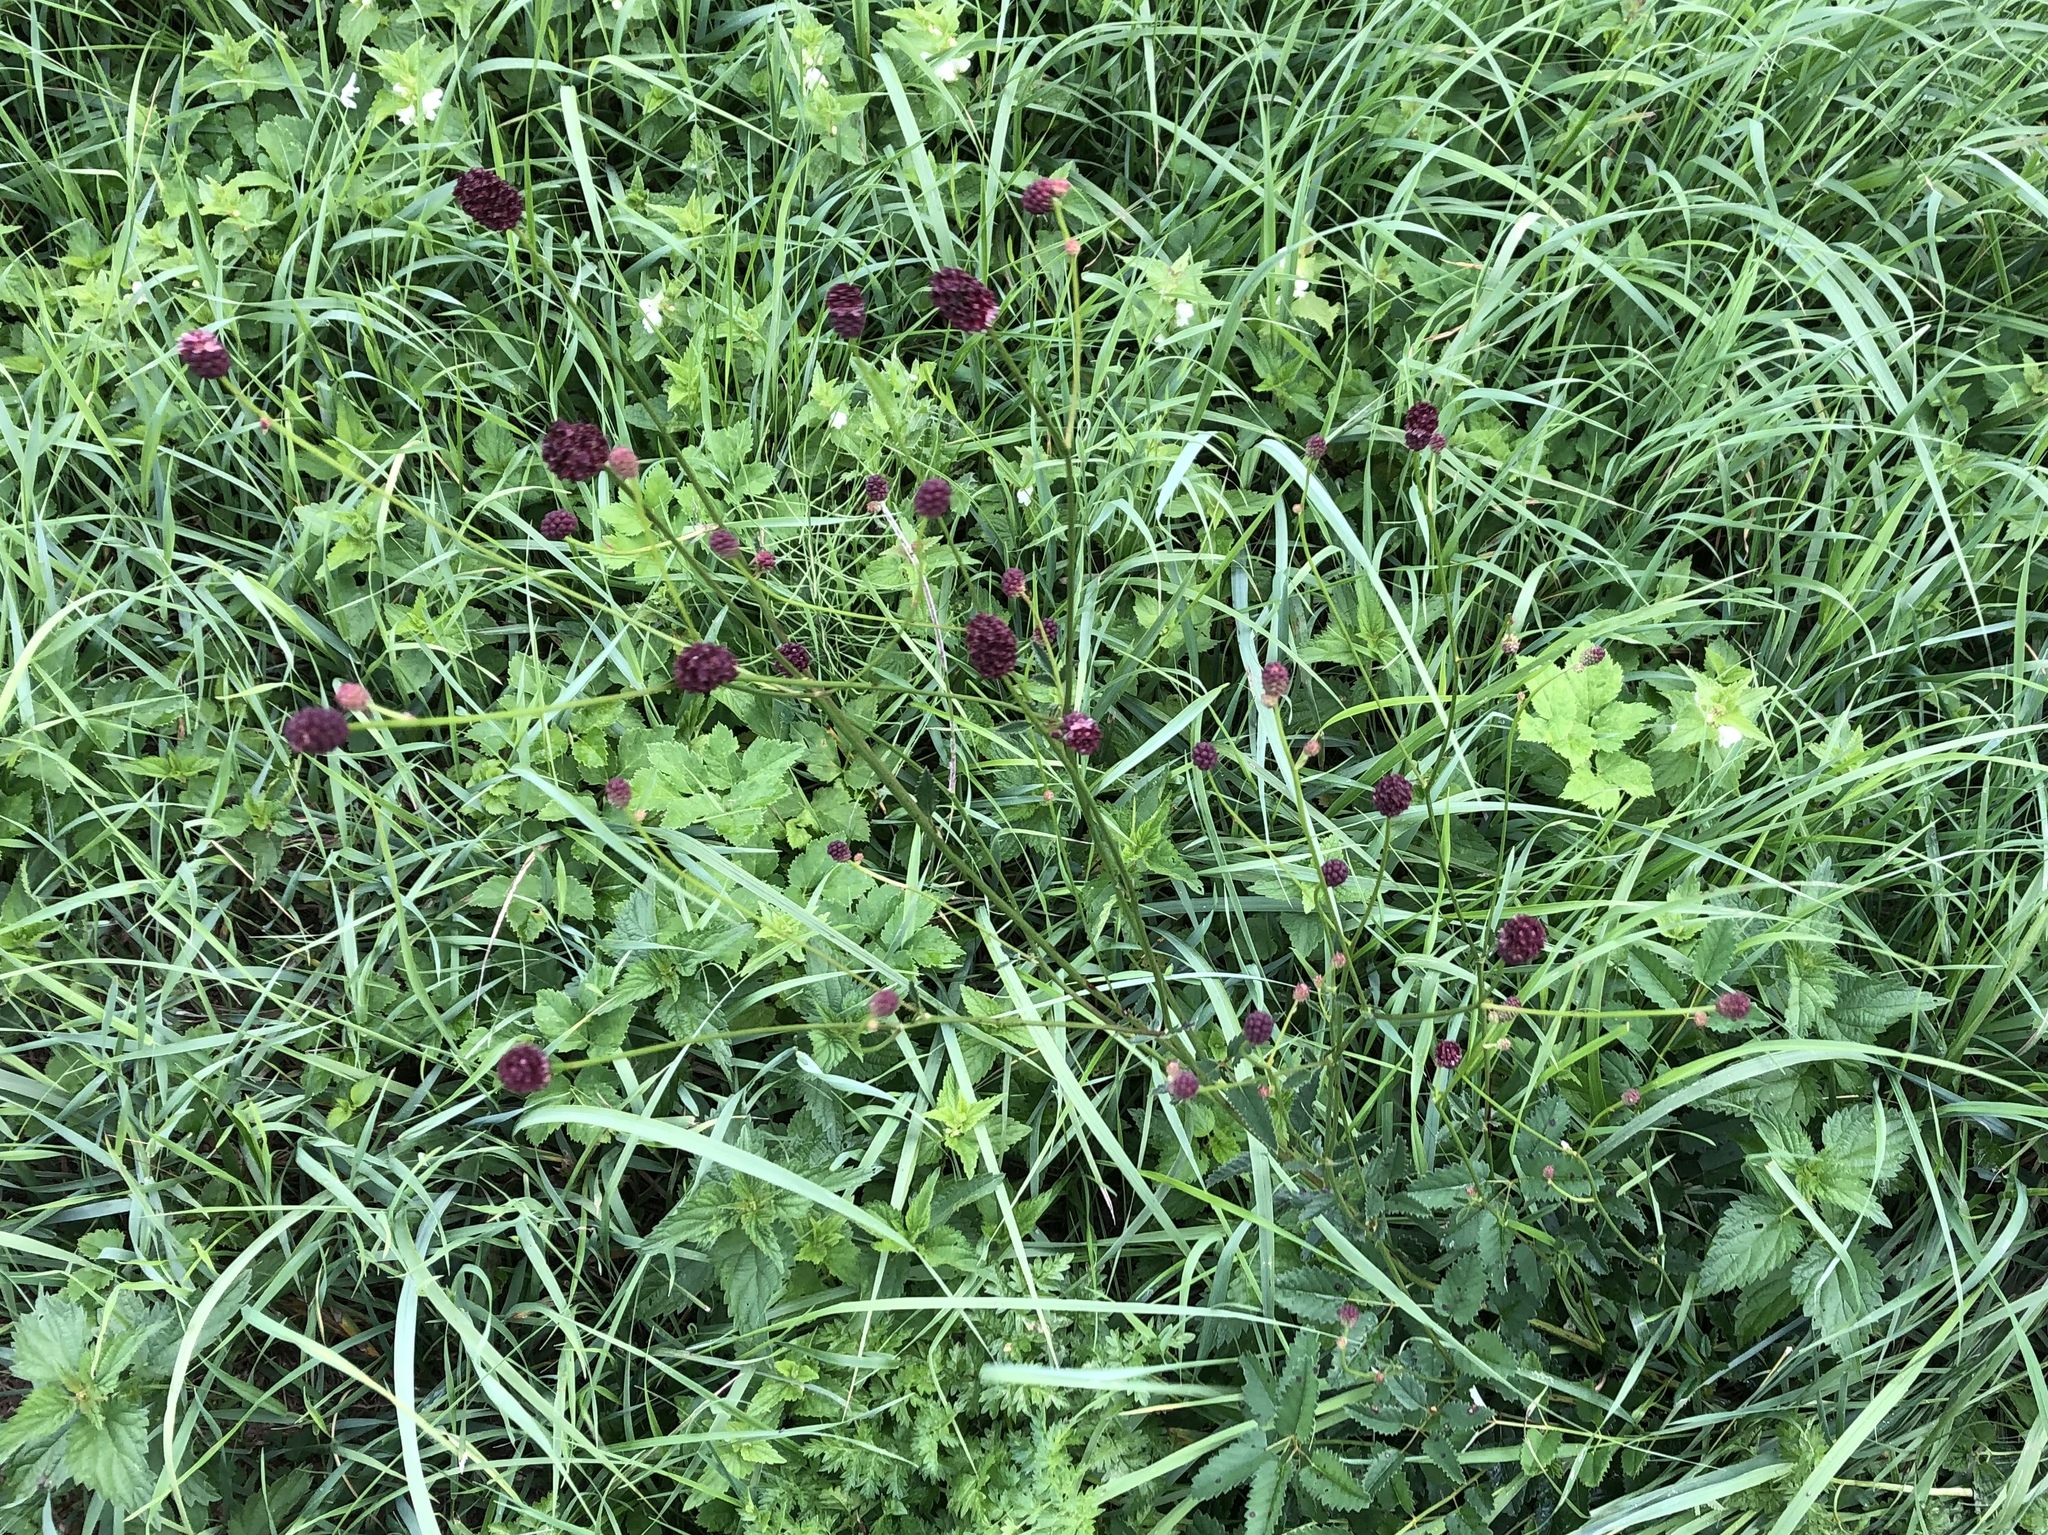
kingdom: Plantae
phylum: Tracheophyta
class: Magnoliopsida
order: Rosales
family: Rosaceae
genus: Sanguisorba
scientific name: Sanguisorba officinalis
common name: Great burnet
